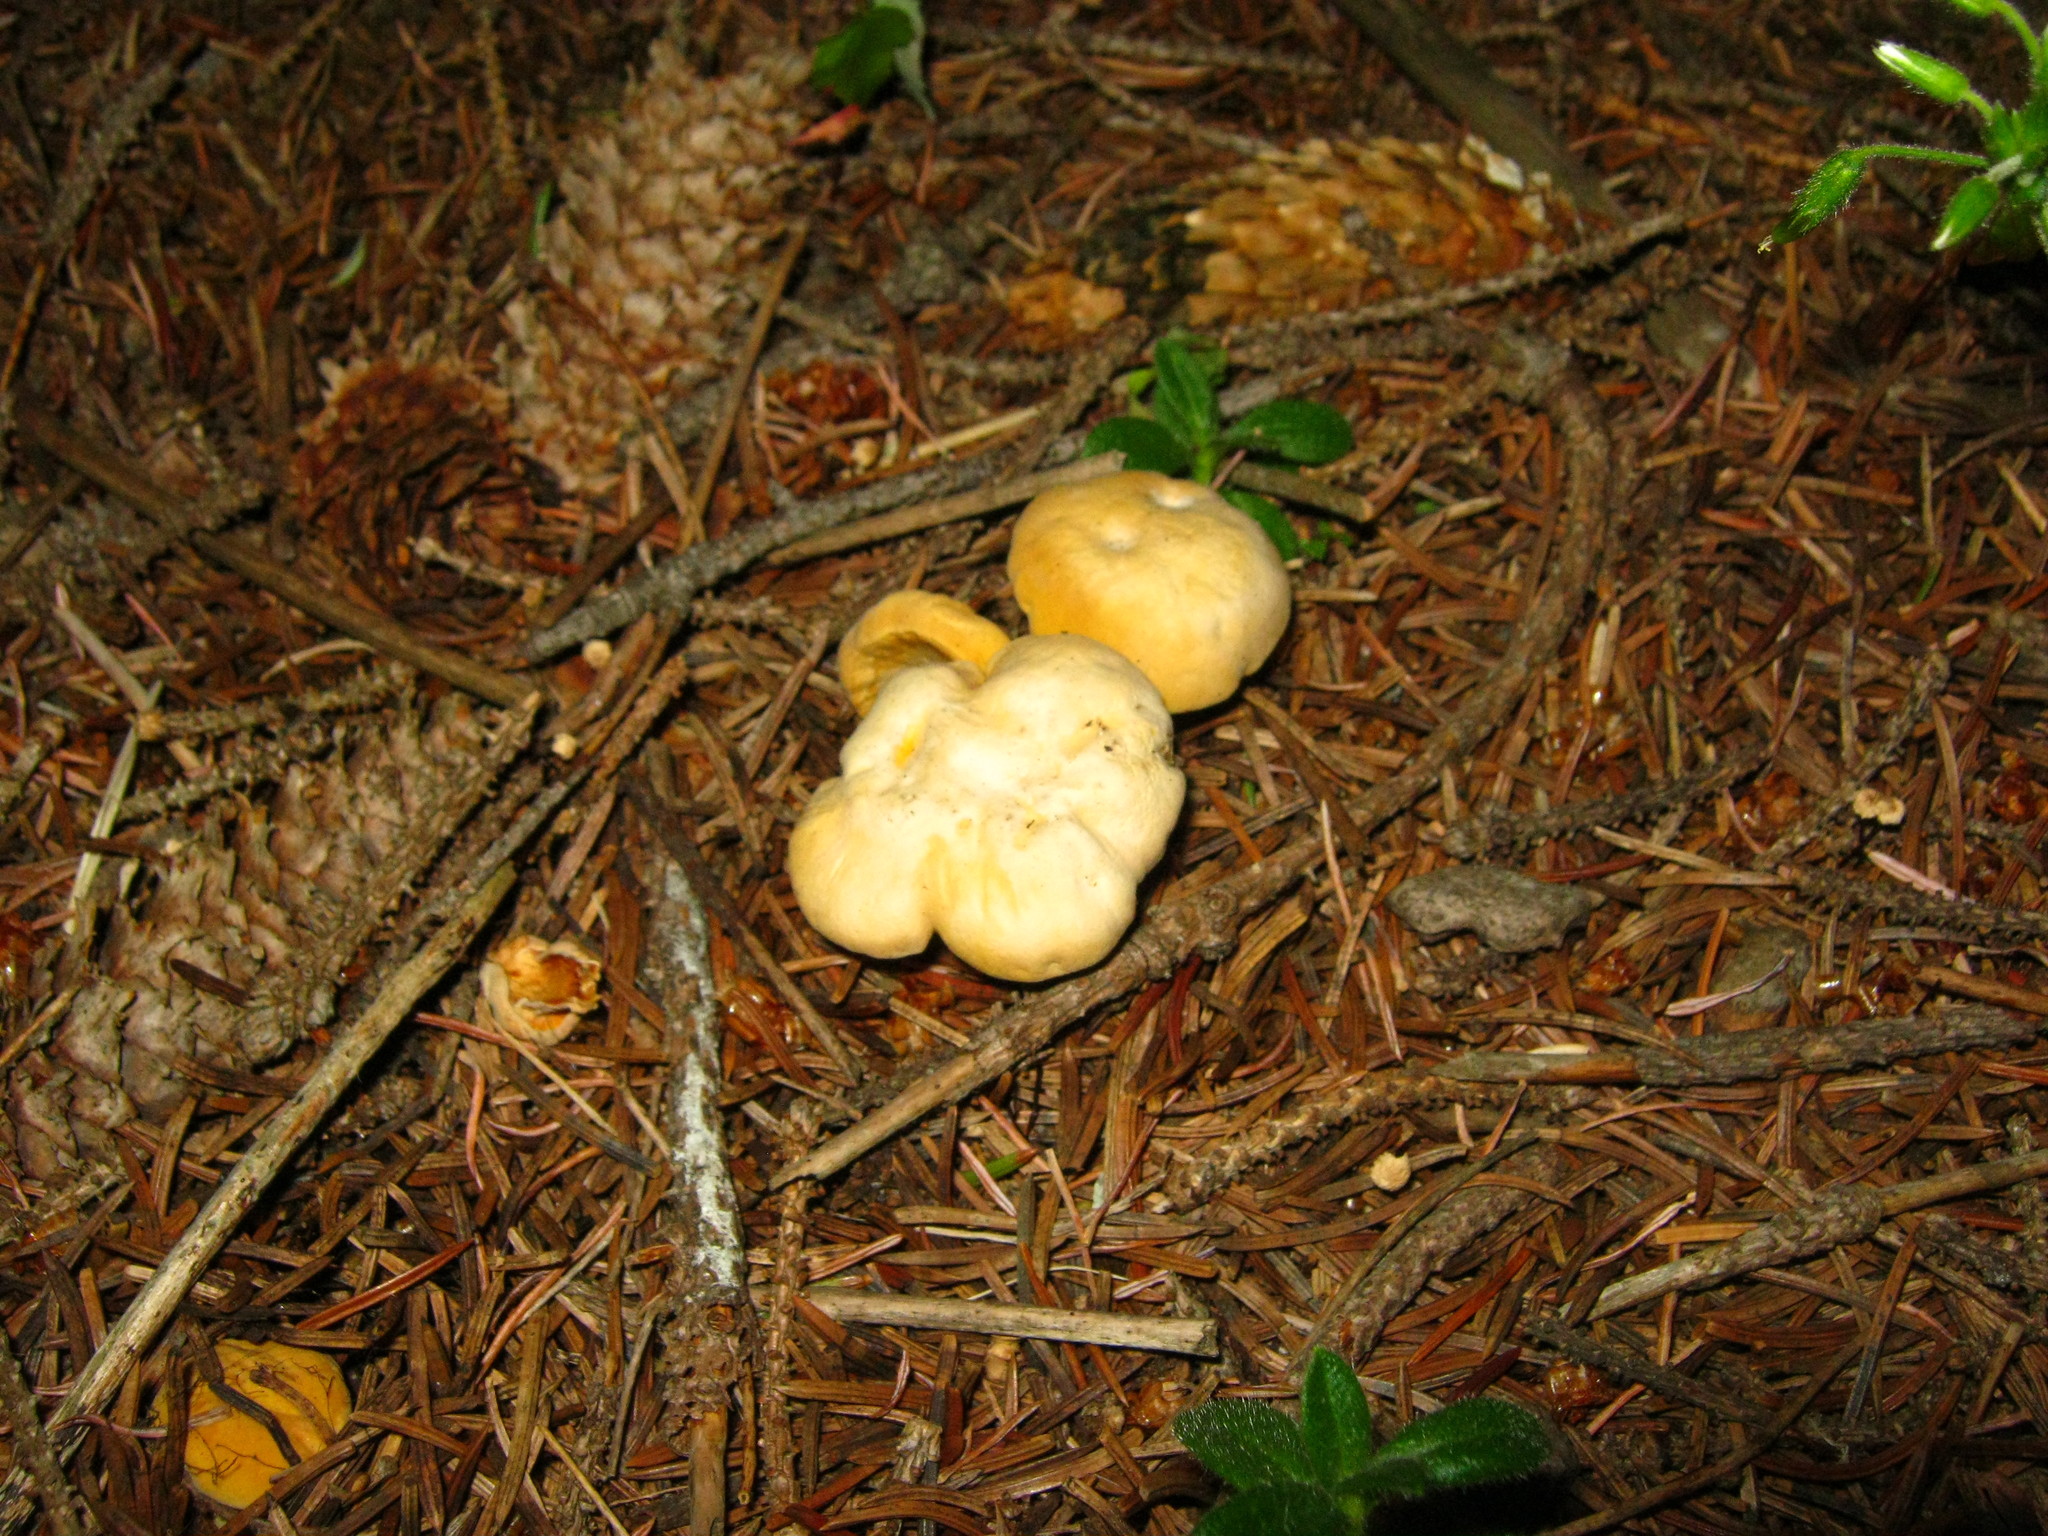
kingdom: Fungi
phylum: Basidiomycota
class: Agaricomycetes
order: Cantharellales
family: Hydnaceae
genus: Cantharellus
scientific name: Cantharellus enelensis
